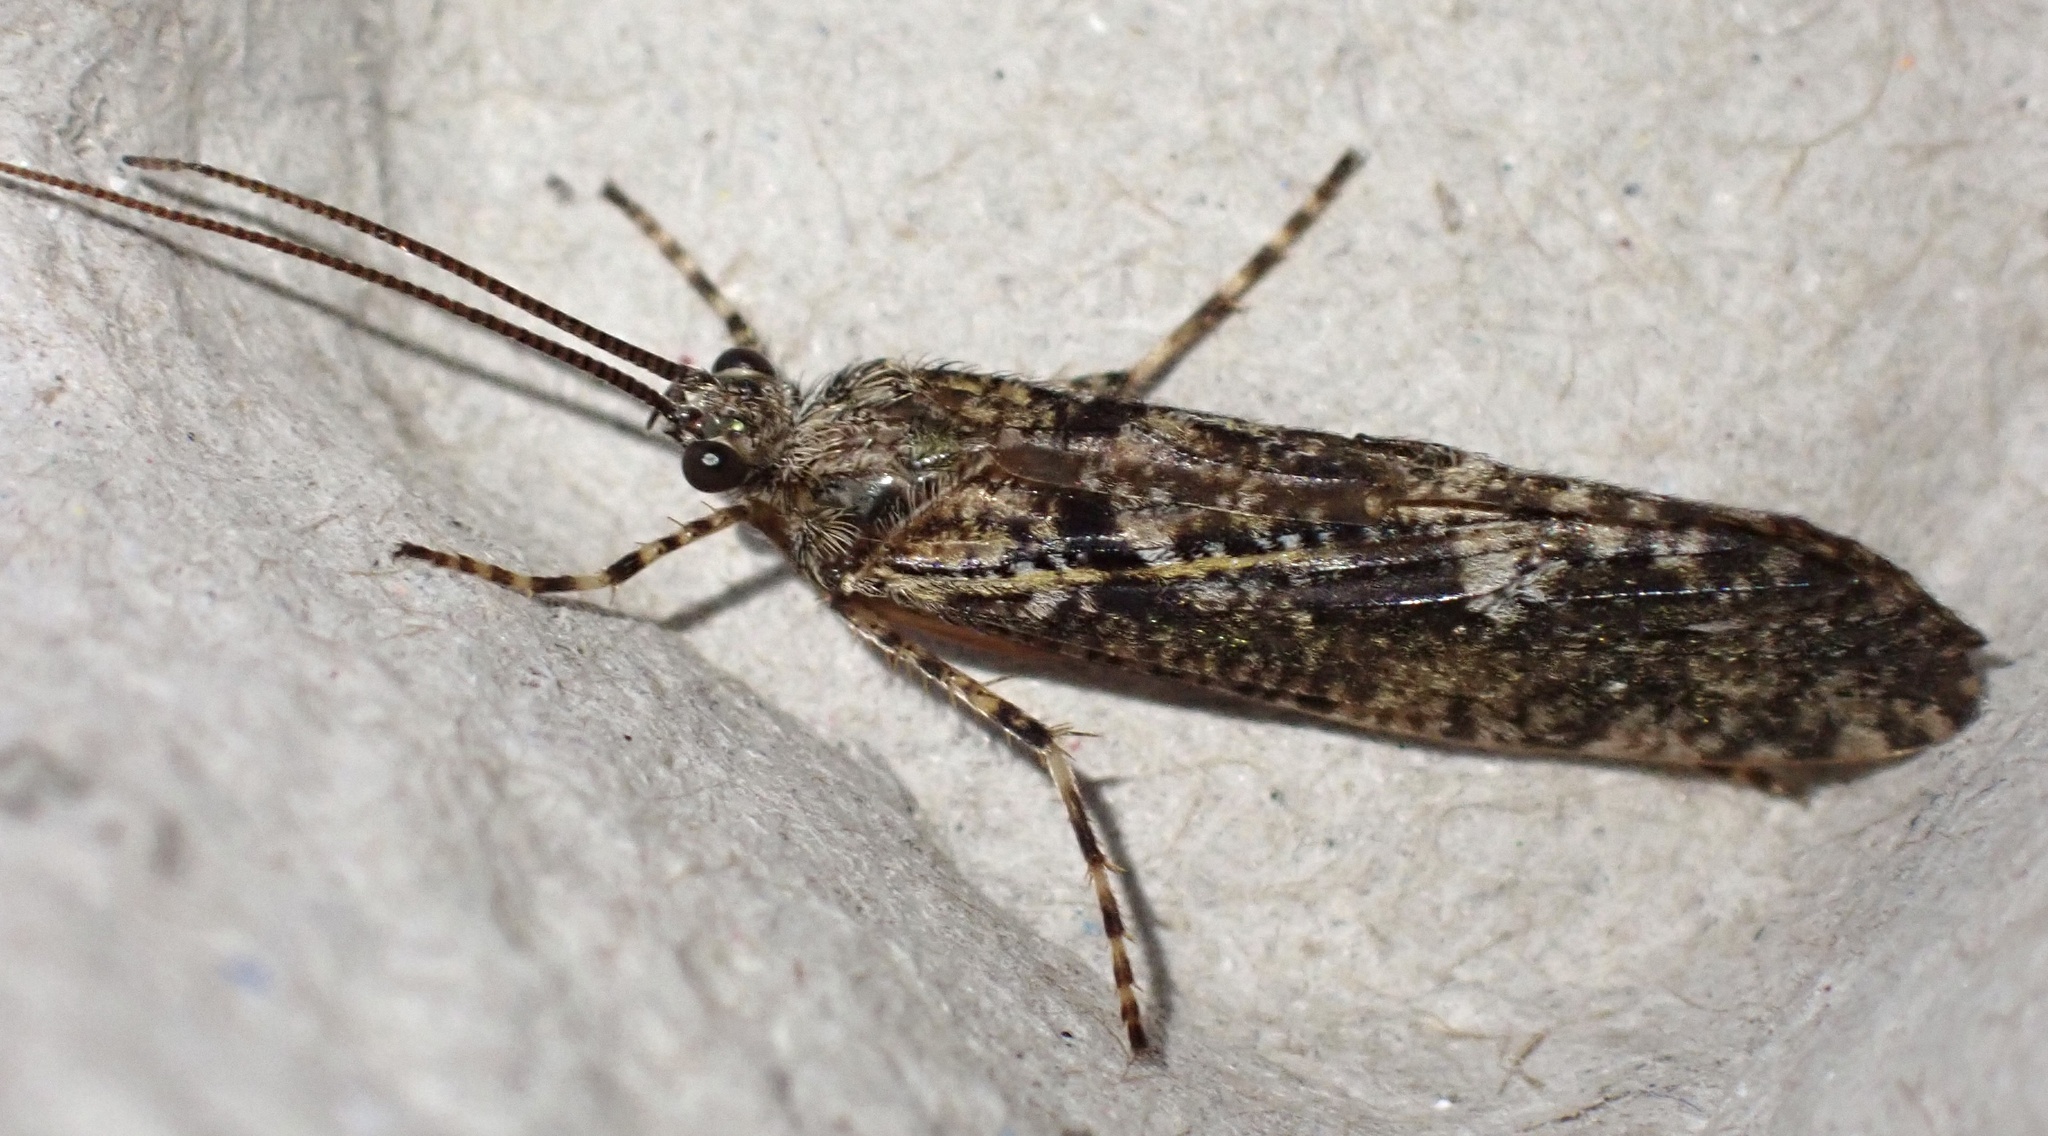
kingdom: Animalia
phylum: Arthropoda
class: Insecta
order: Trichoptera
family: Phryganeidae
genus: Agrypnia
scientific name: Agrypnia varia
